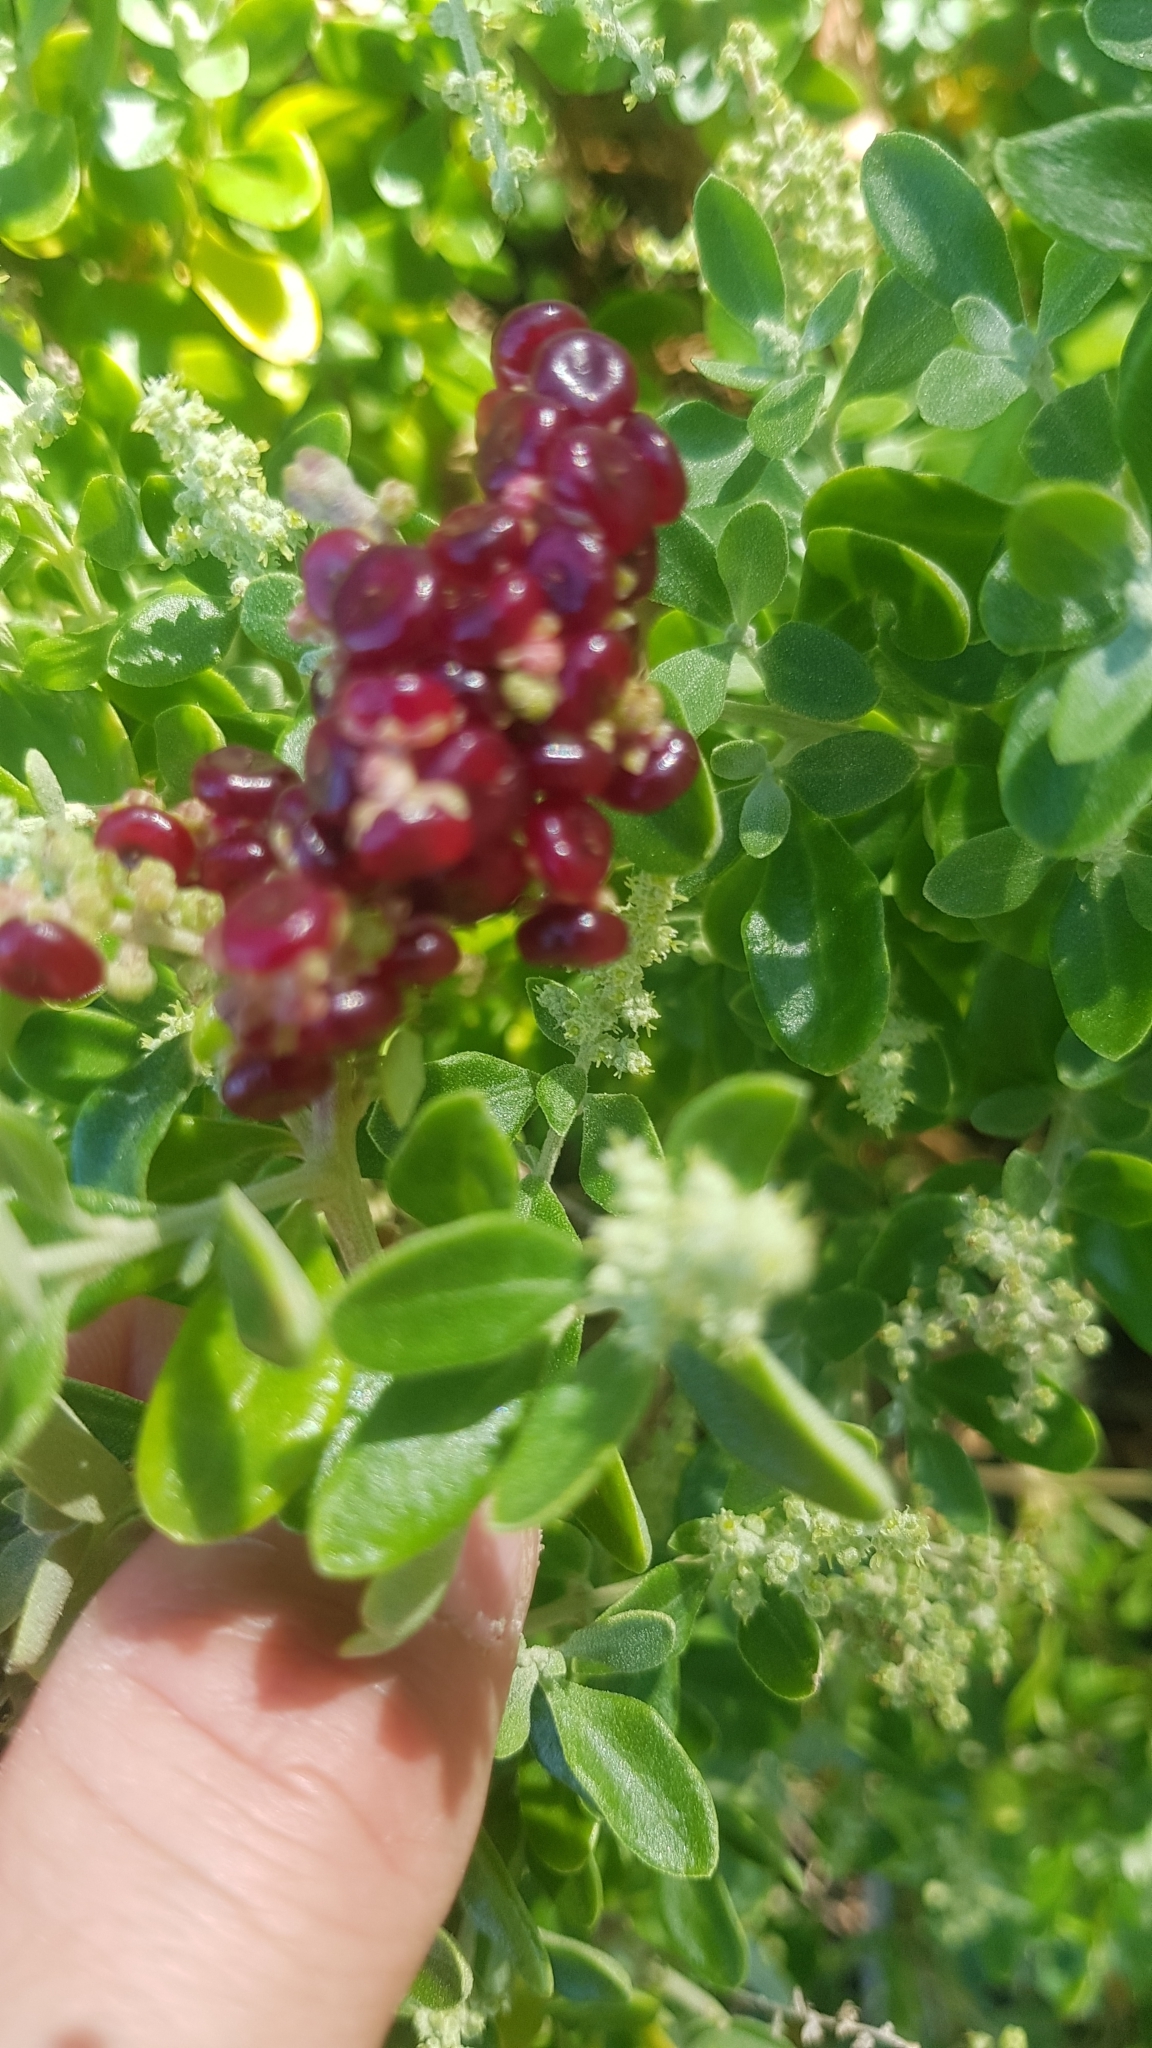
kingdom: Plantae
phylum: Tracheophyta
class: Magnoliopsida
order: Caryophyllales
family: Amaranthaceae
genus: Chenopodium
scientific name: Chenopodium candolleanum
